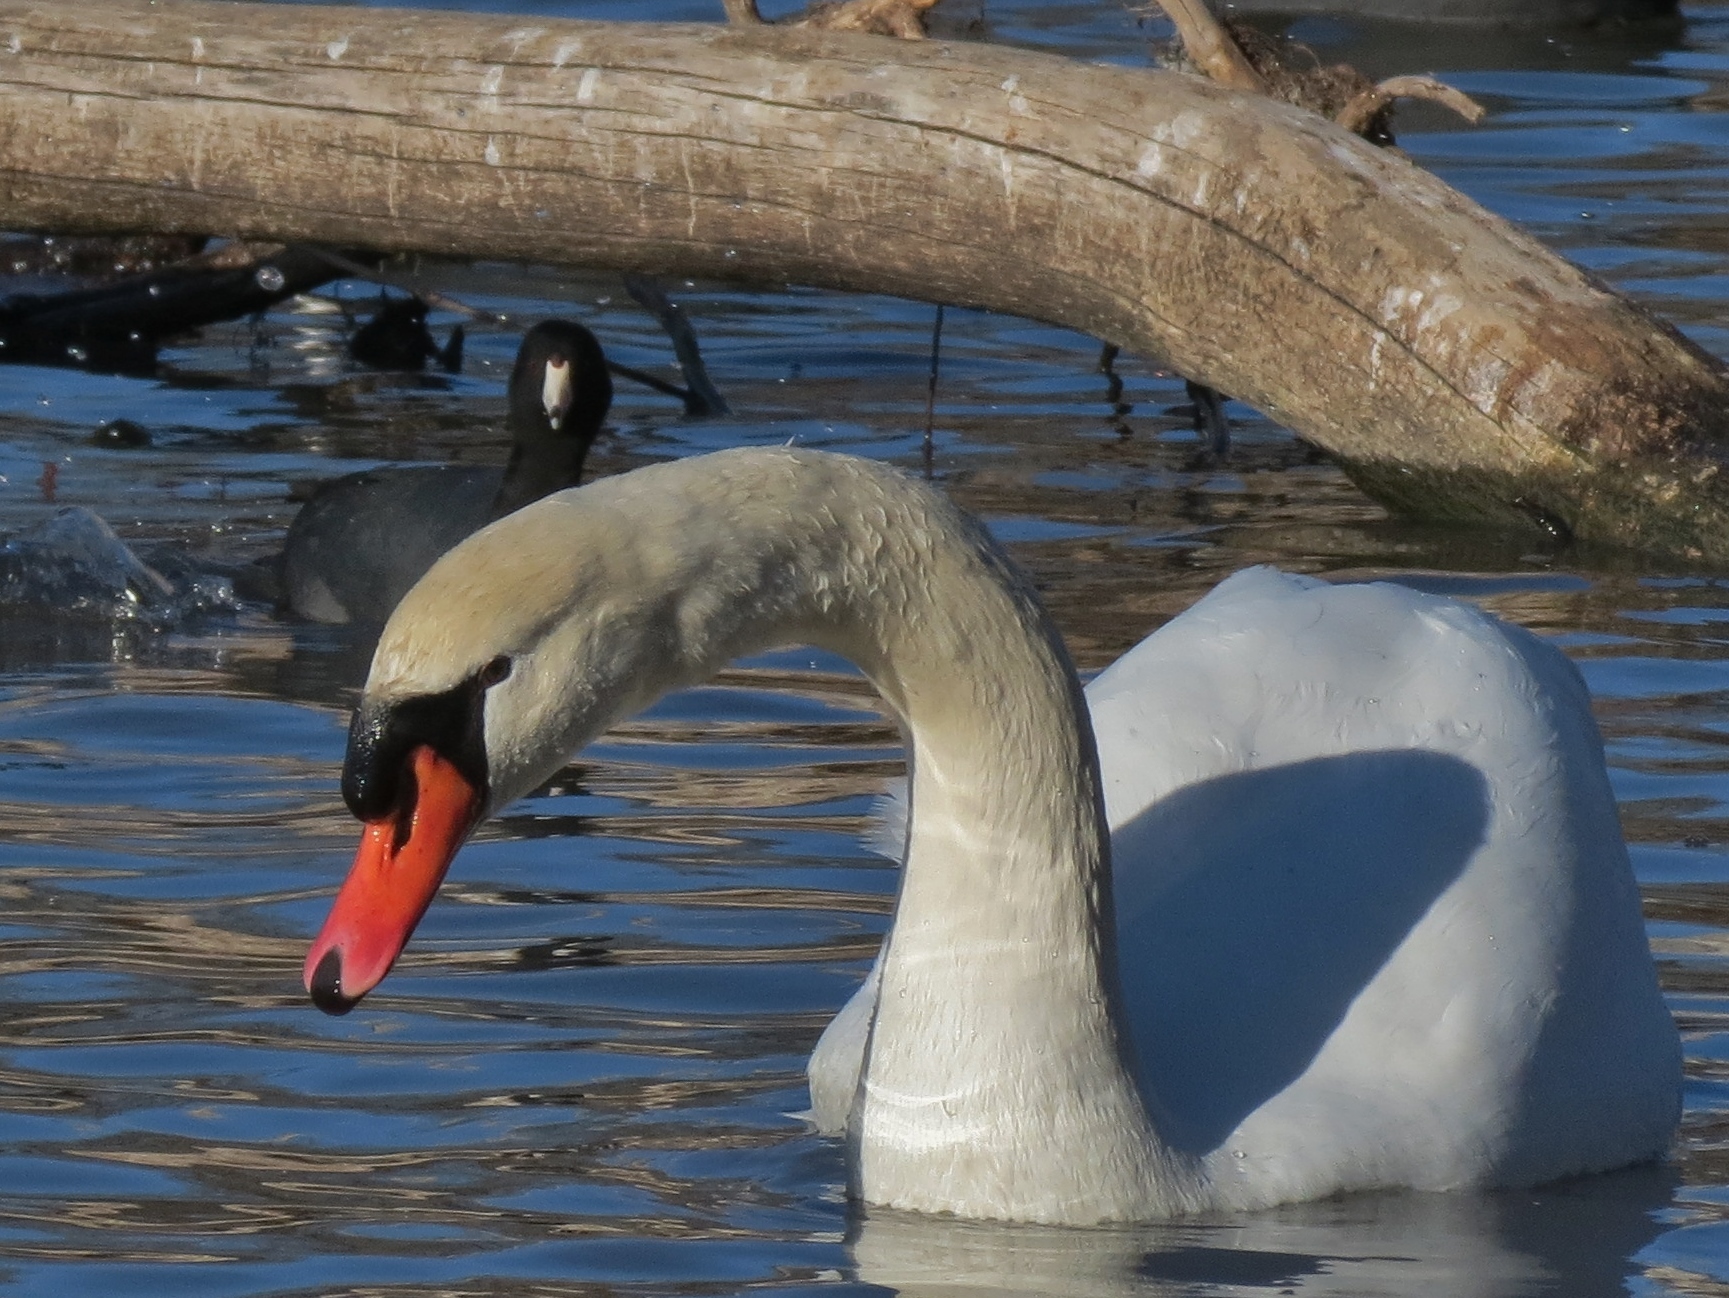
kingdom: Animalia
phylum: Chordata
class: Aves
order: Anseriformes
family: Anatidae
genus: Cygnus
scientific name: Cygnus olor
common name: Mute swan
